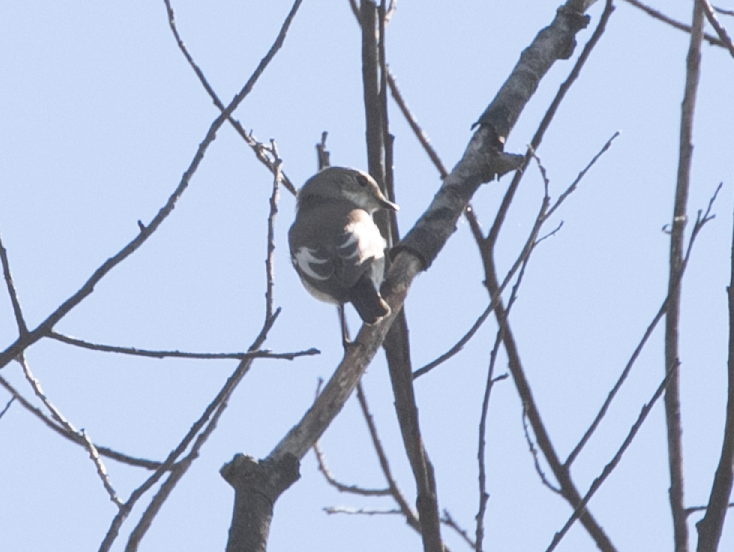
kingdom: Animalia
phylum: Chordata
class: Aves
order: Passeriformes
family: Muscicapidae
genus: Ficedula
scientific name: Ficedula hypoleuca
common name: European pied flycatcher
